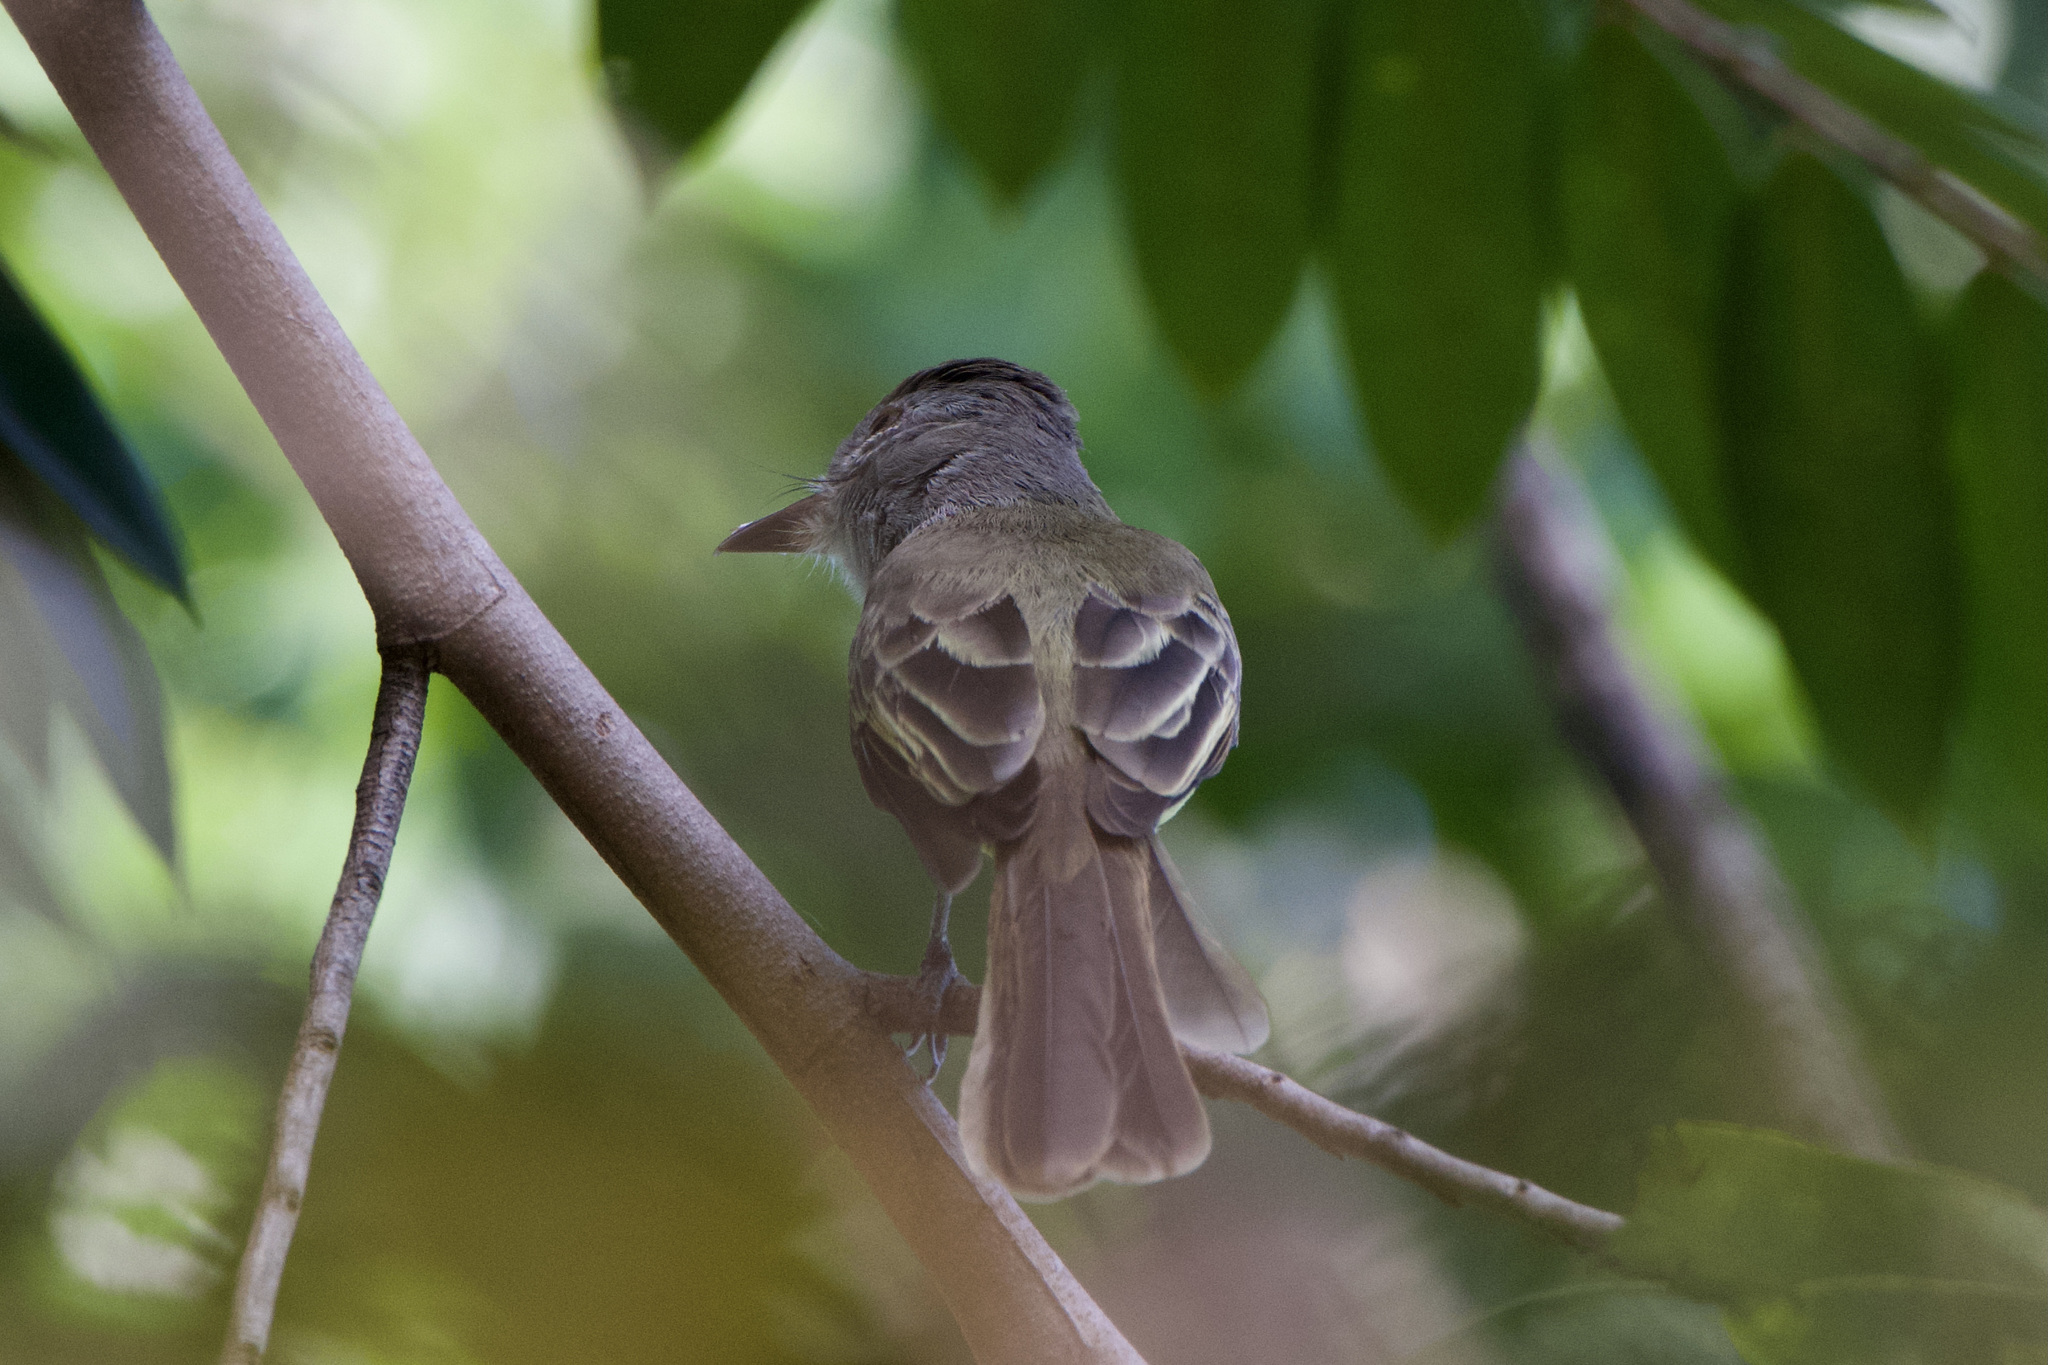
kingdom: Animalia
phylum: Chordata
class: Aves
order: Passeriformes
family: Tyrannidae
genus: Myiarchus
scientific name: Myiarchus crinitus
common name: Great crested flycatcher
